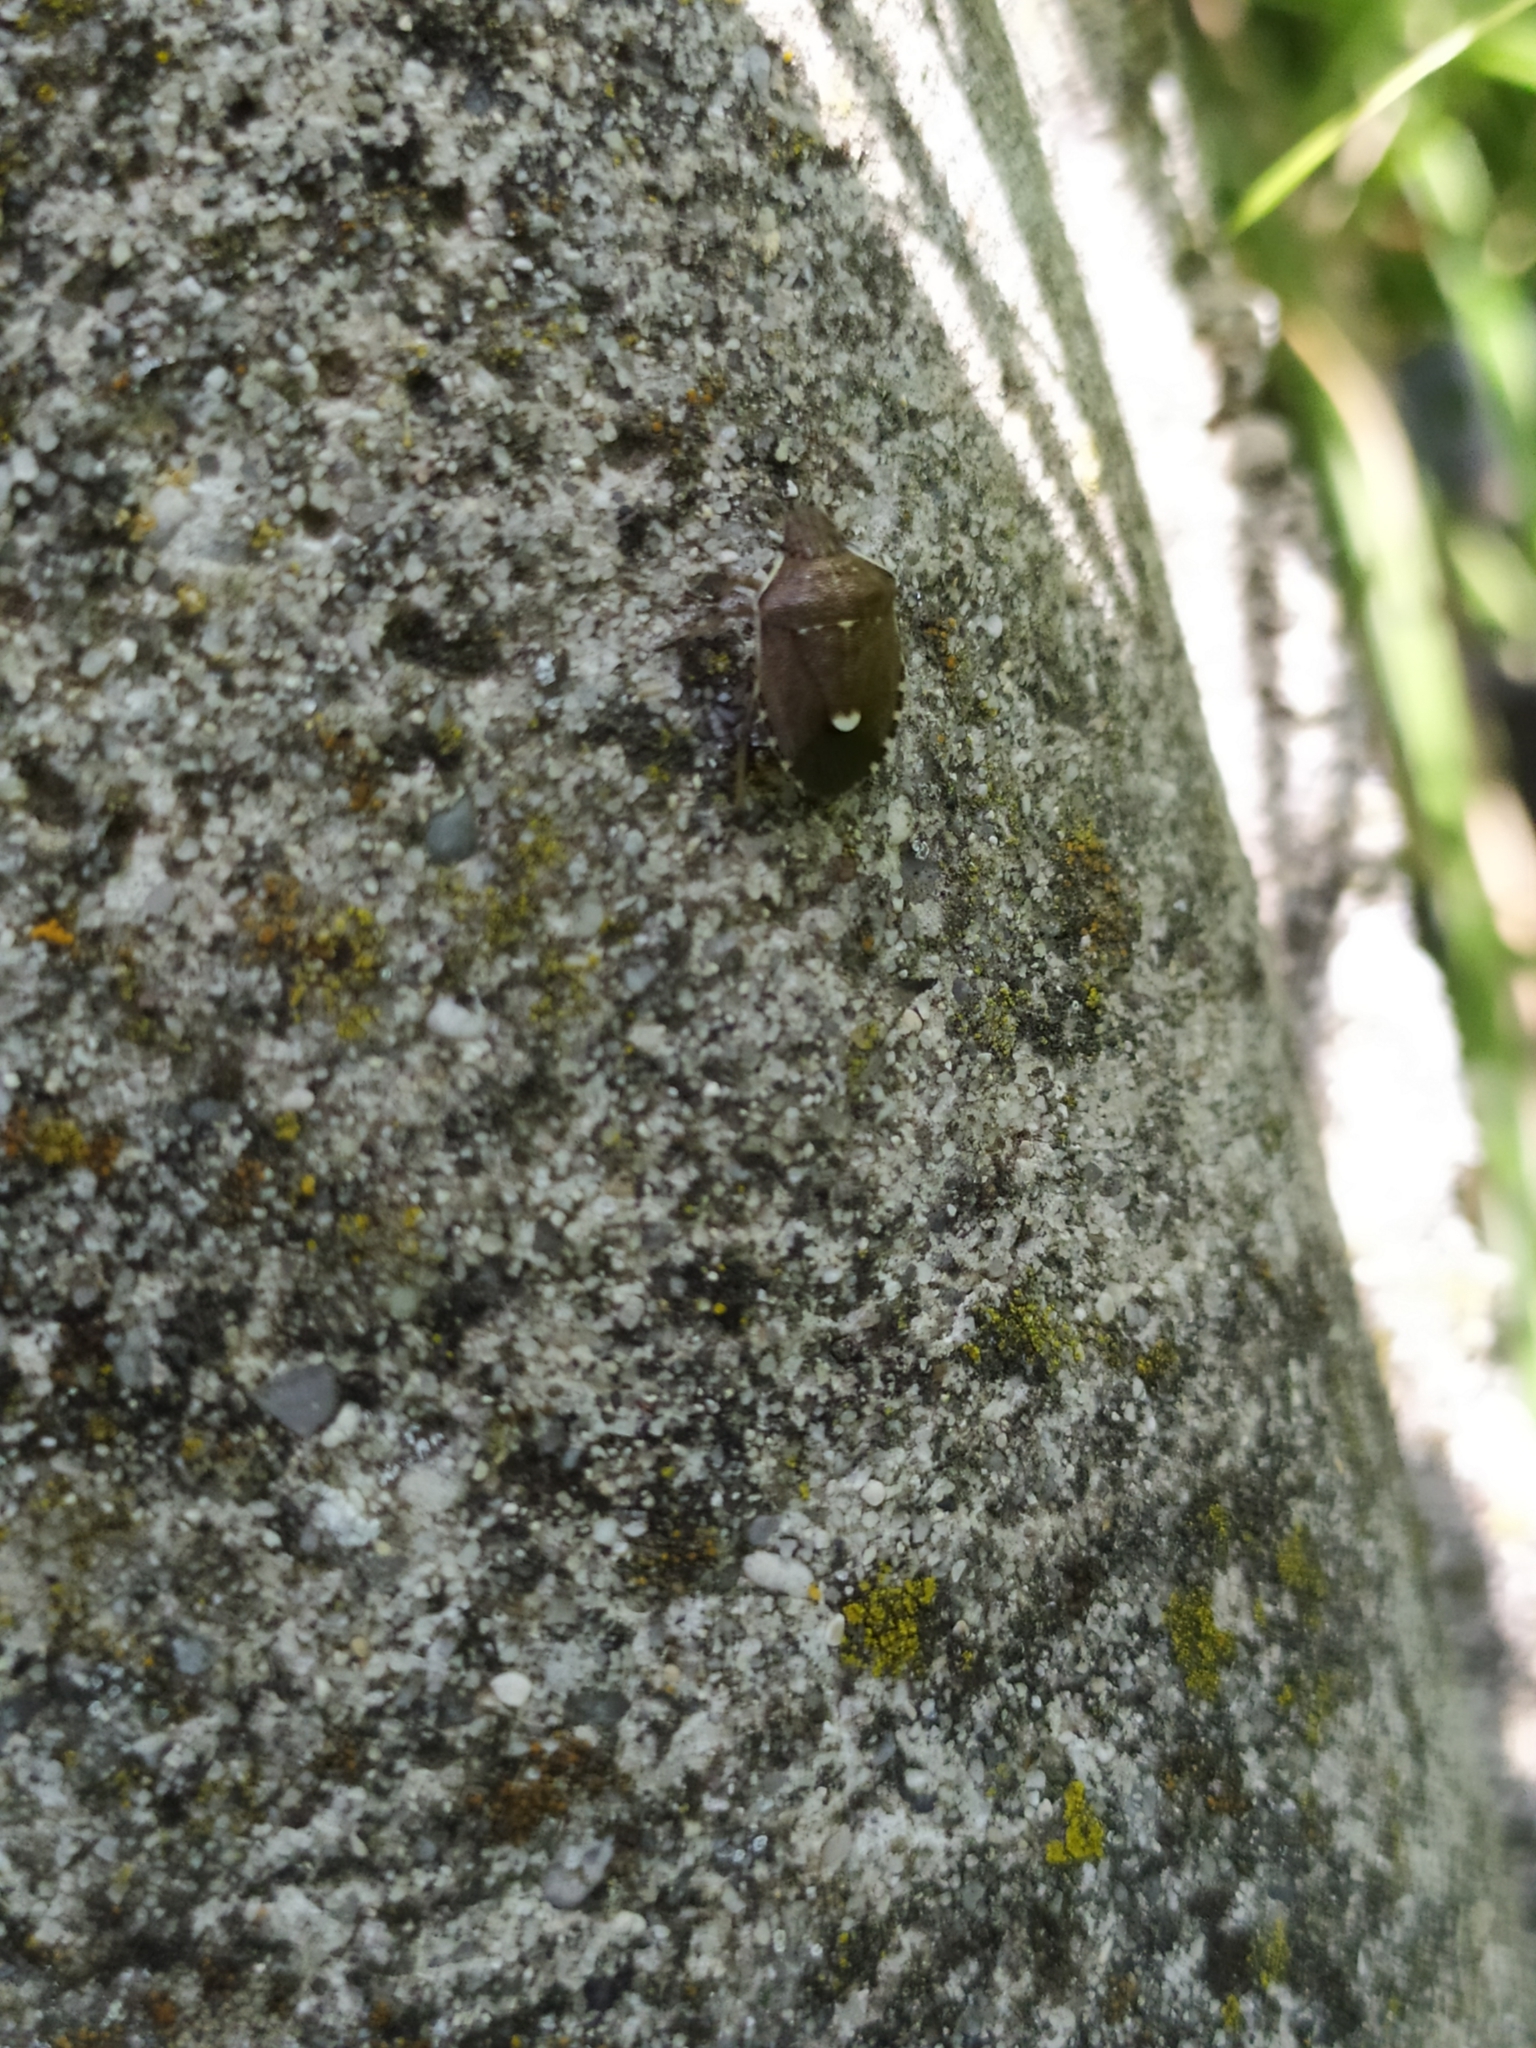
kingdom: Animalia
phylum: Arthropoda
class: Insecta
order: Hemiptera
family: Pentatomidae
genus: Holcostethus
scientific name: Holcostethus sphacelatus
